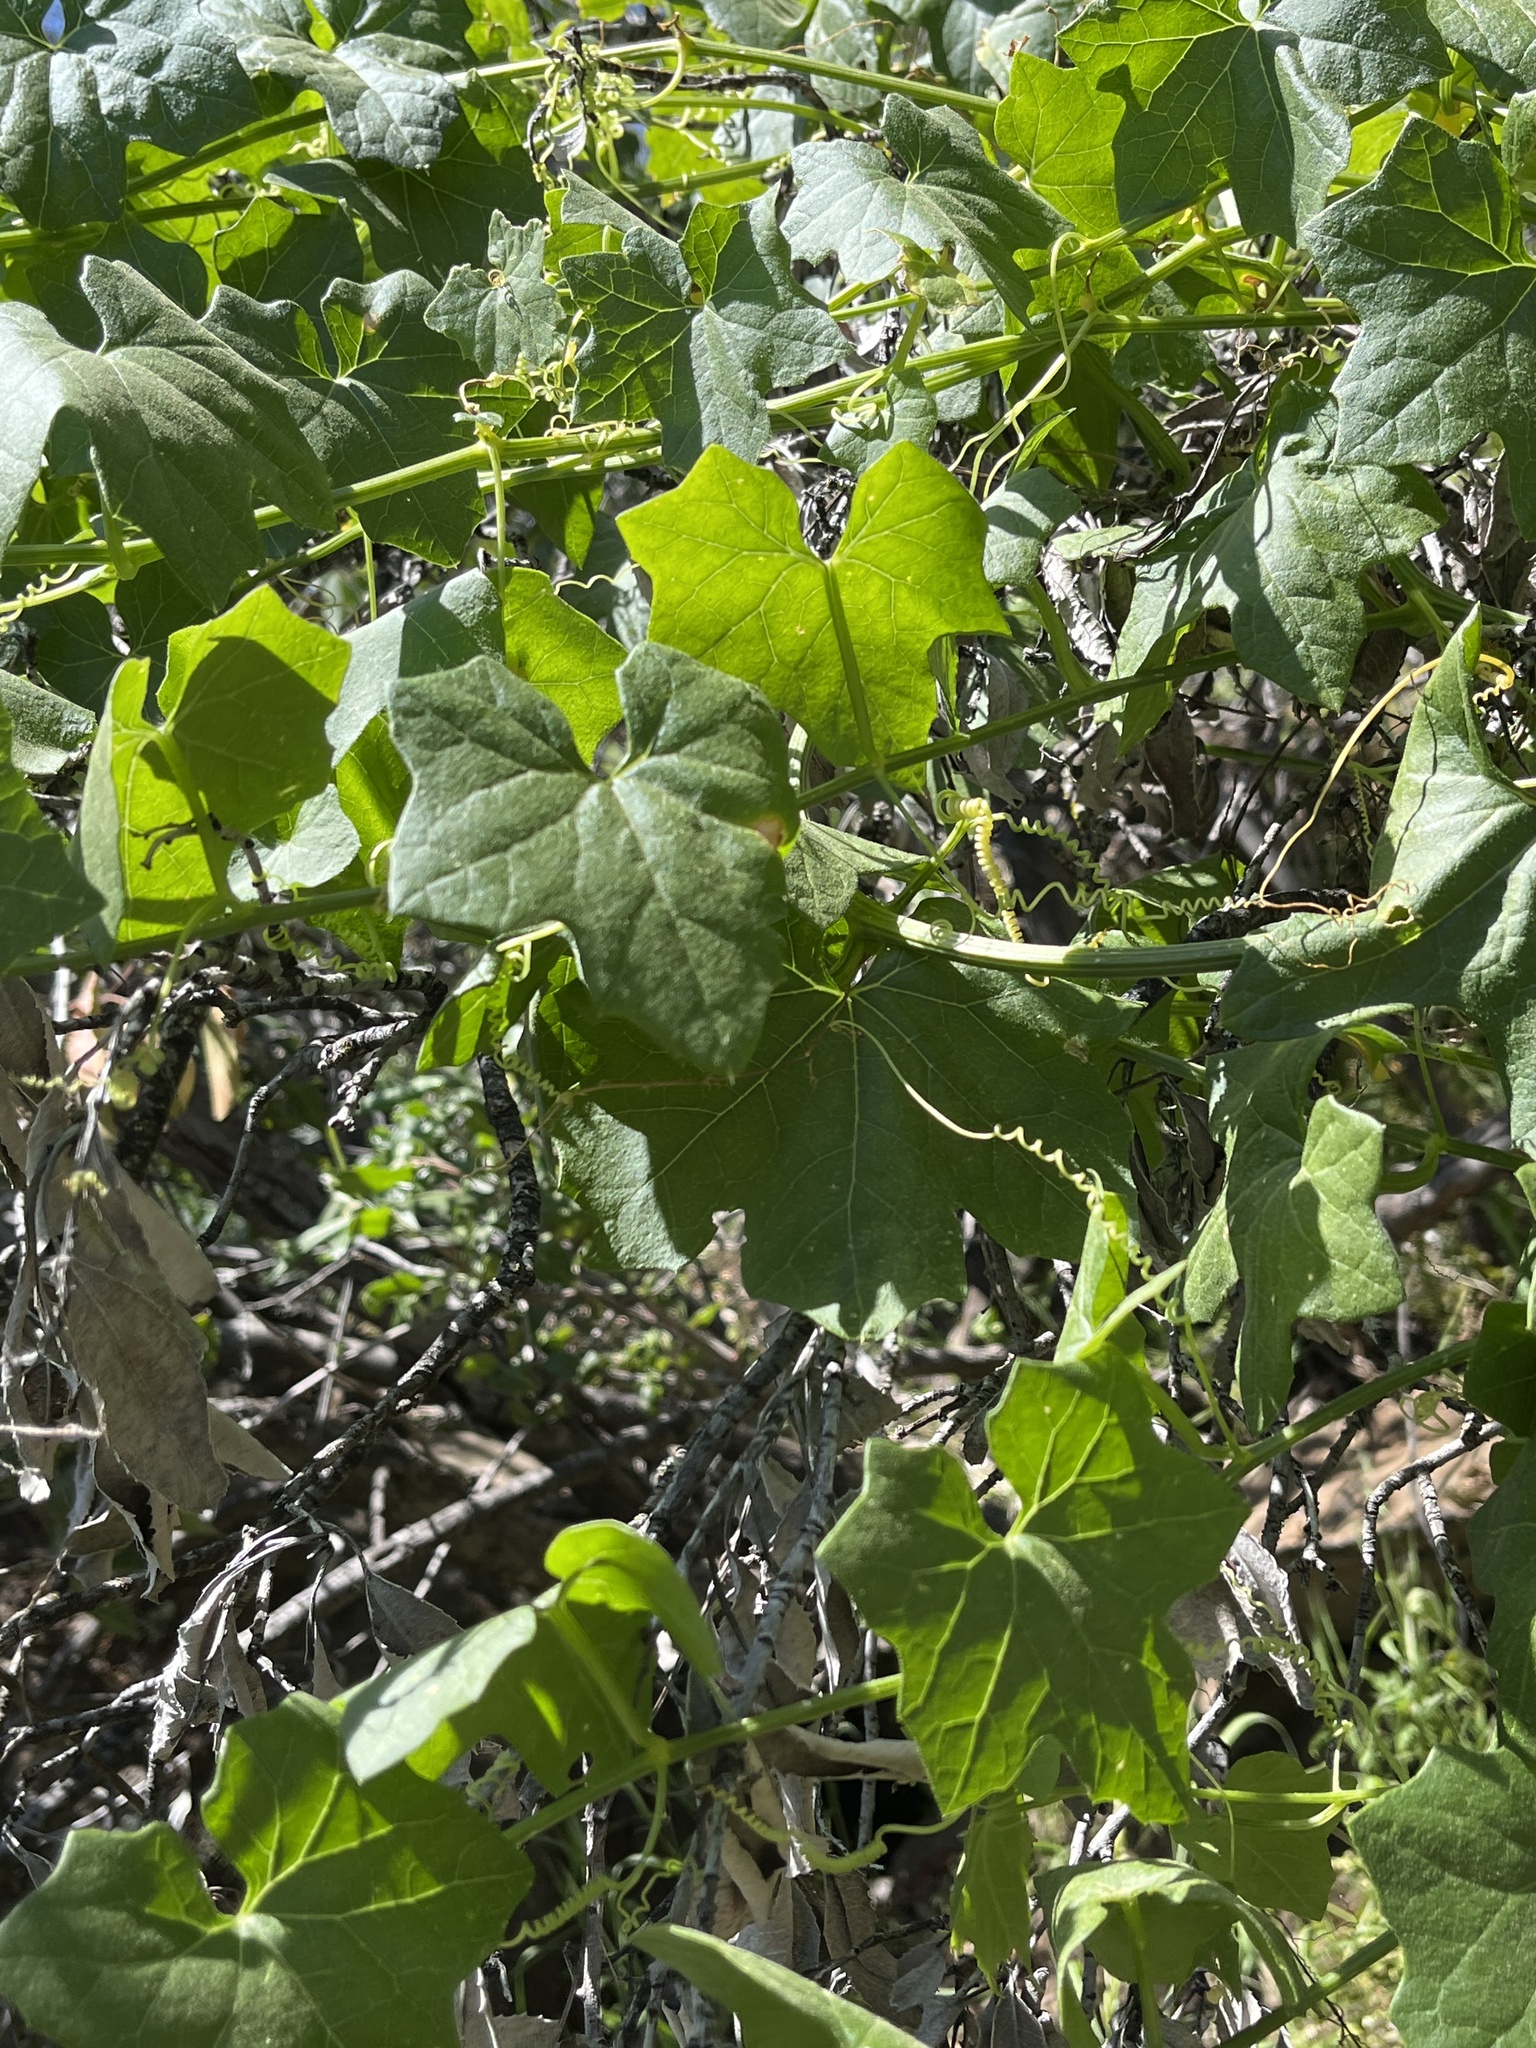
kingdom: Plantae
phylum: Tracheophyta
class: Magnoliopsida
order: Cucurbitales
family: Cucurbitaceae
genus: Marah
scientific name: Marah fabacea
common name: California manroot
